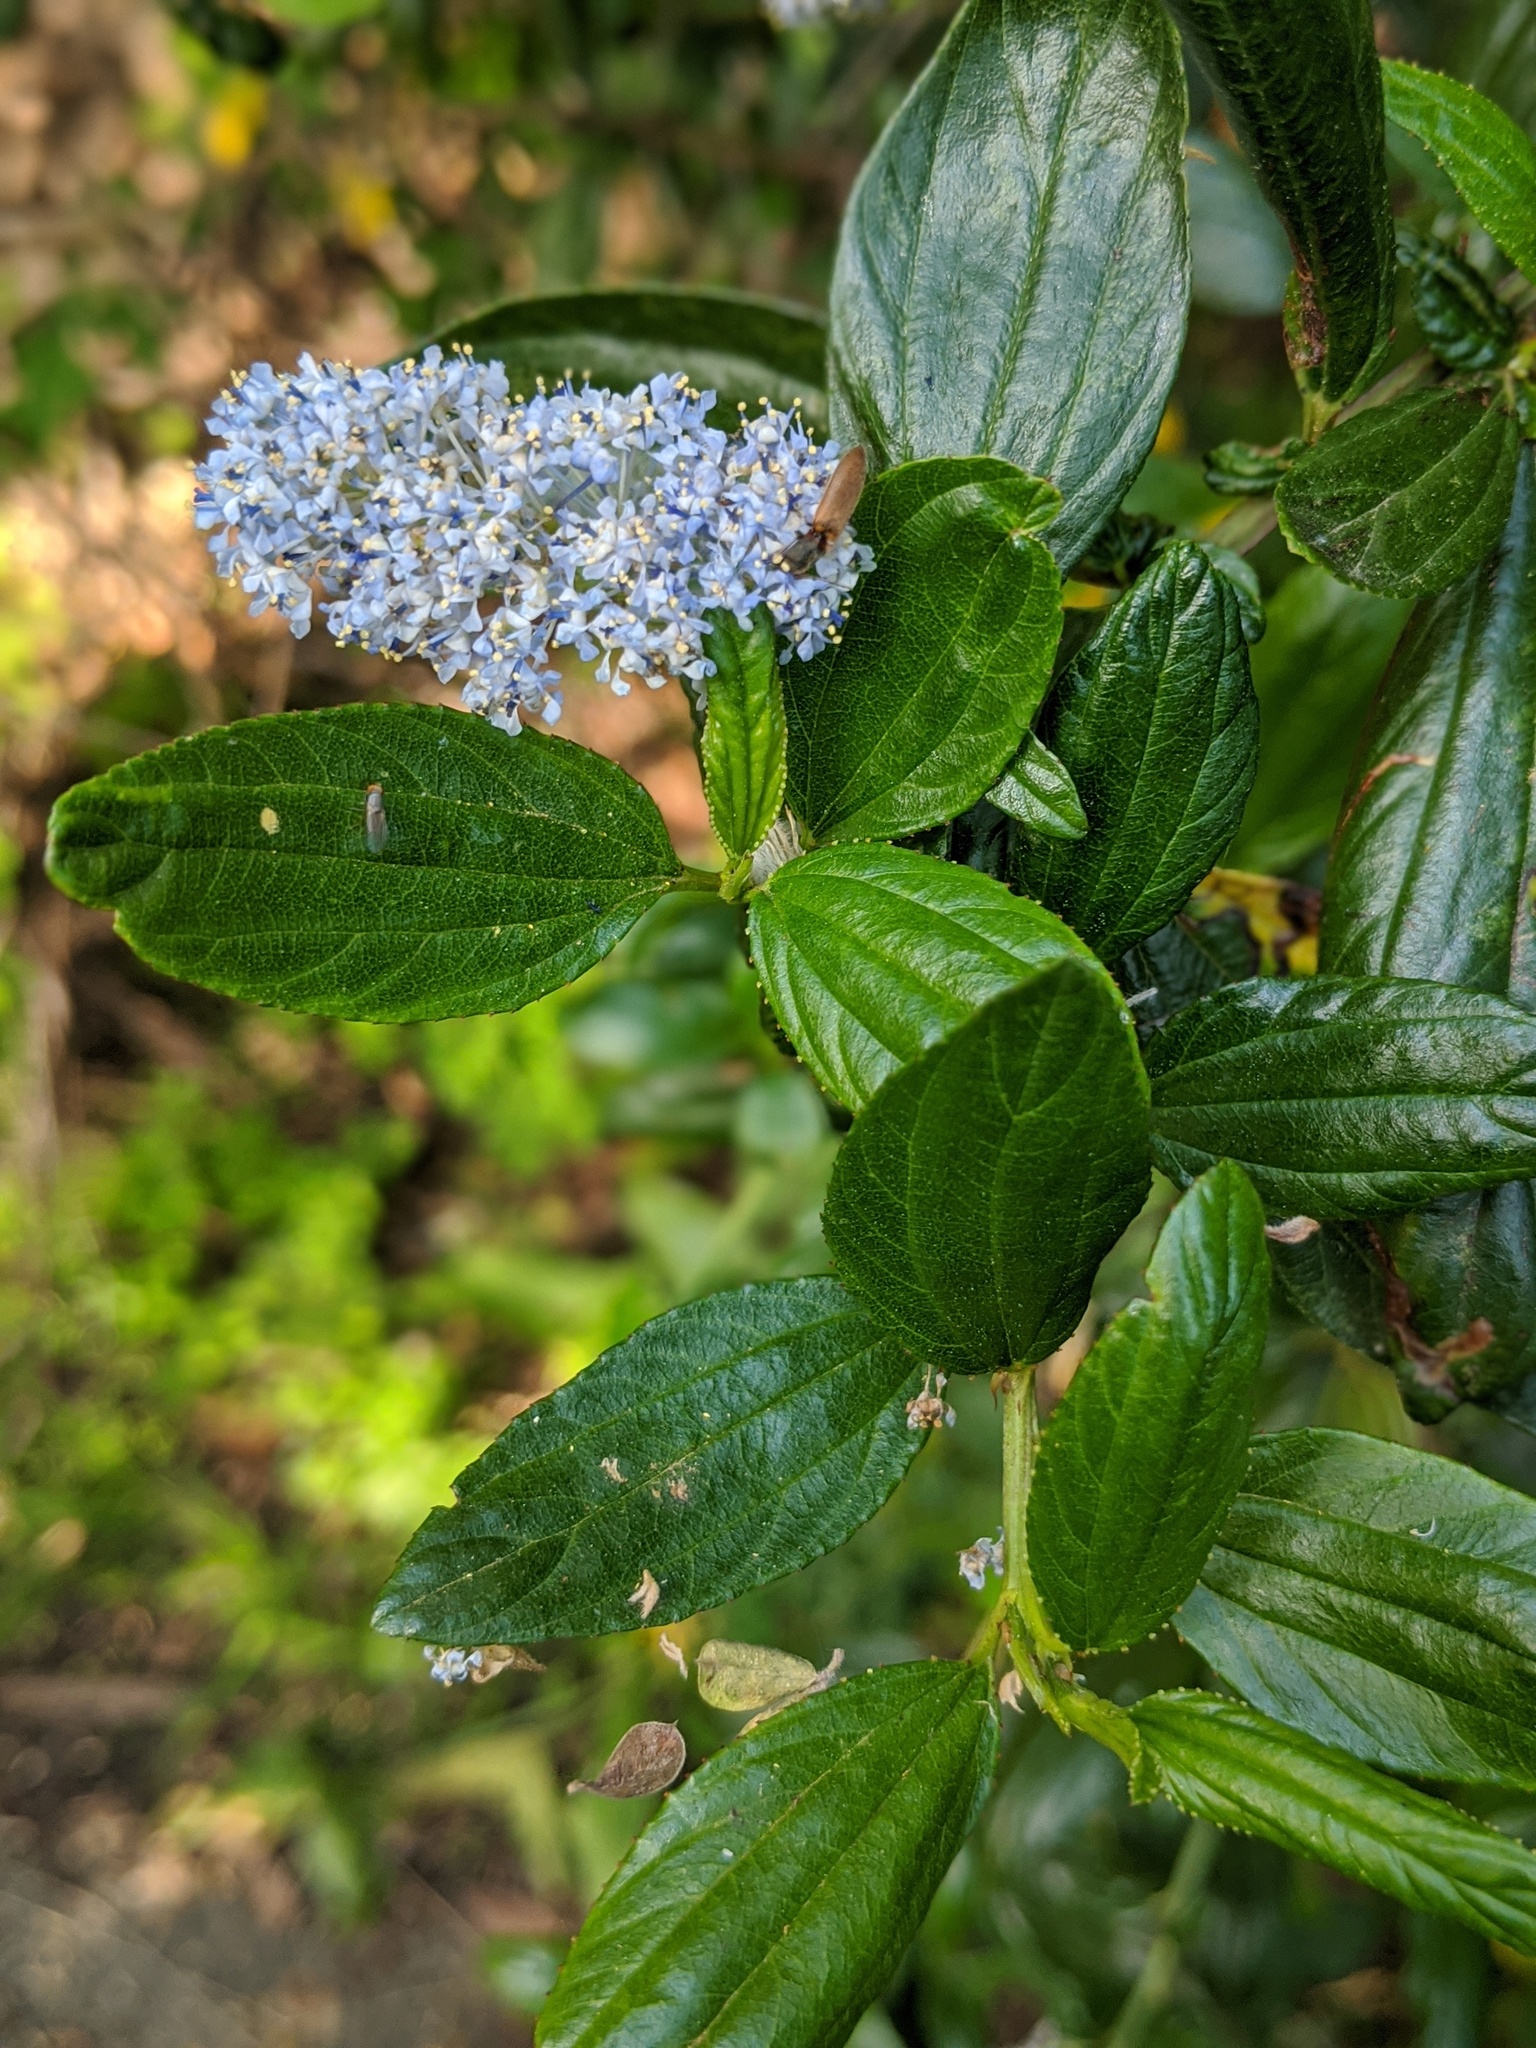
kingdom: Plantae
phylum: Tracheophyta
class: Magnoliopsida
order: Rosales
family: Rhamnaceae
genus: Ceanothus
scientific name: Ceanothus thyrsiflorus
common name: California-lilac
